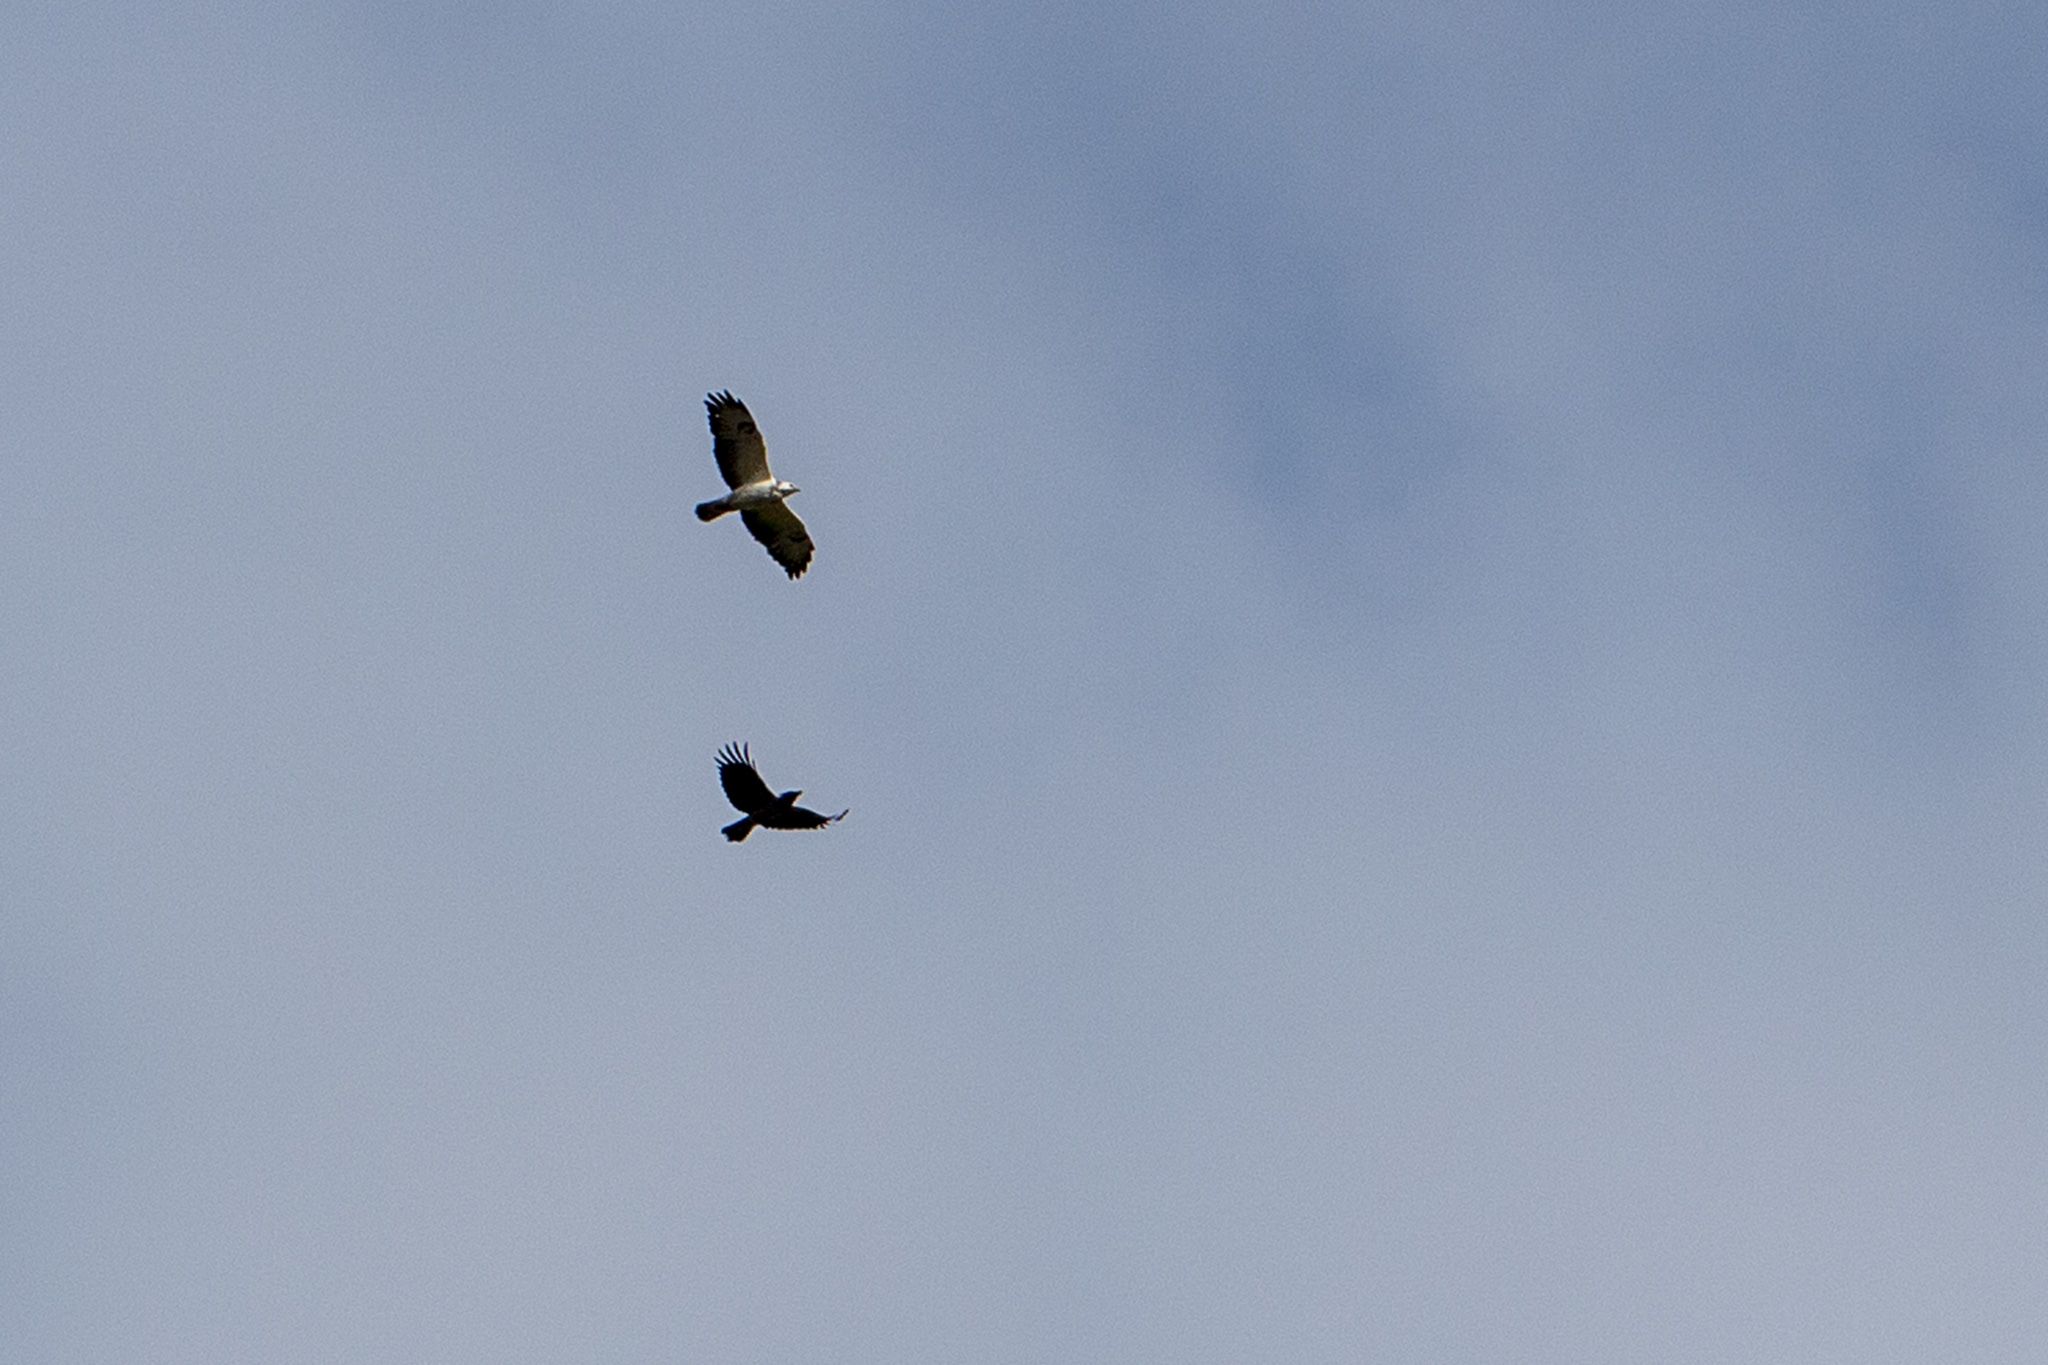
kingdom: Animalia
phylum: Chordata
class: Aves
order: Accipitriformes
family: Accipitridae
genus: Buteo
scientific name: Buteo buteo
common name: Common buzzard
